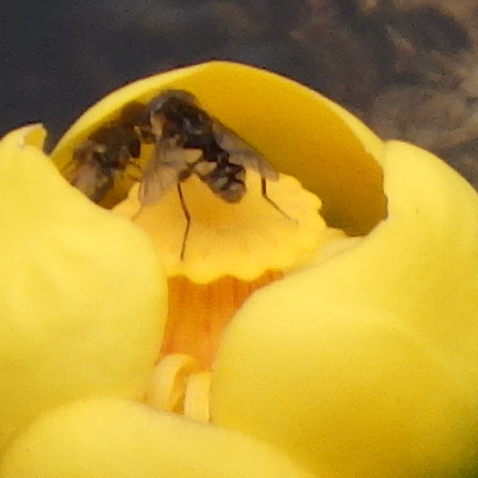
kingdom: Animalia
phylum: Arthropoda
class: Insecta
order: Diptera
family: Syrphidae
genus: Parhelophilus
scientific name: Parhelophilus rex
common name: Dusky bog fly
